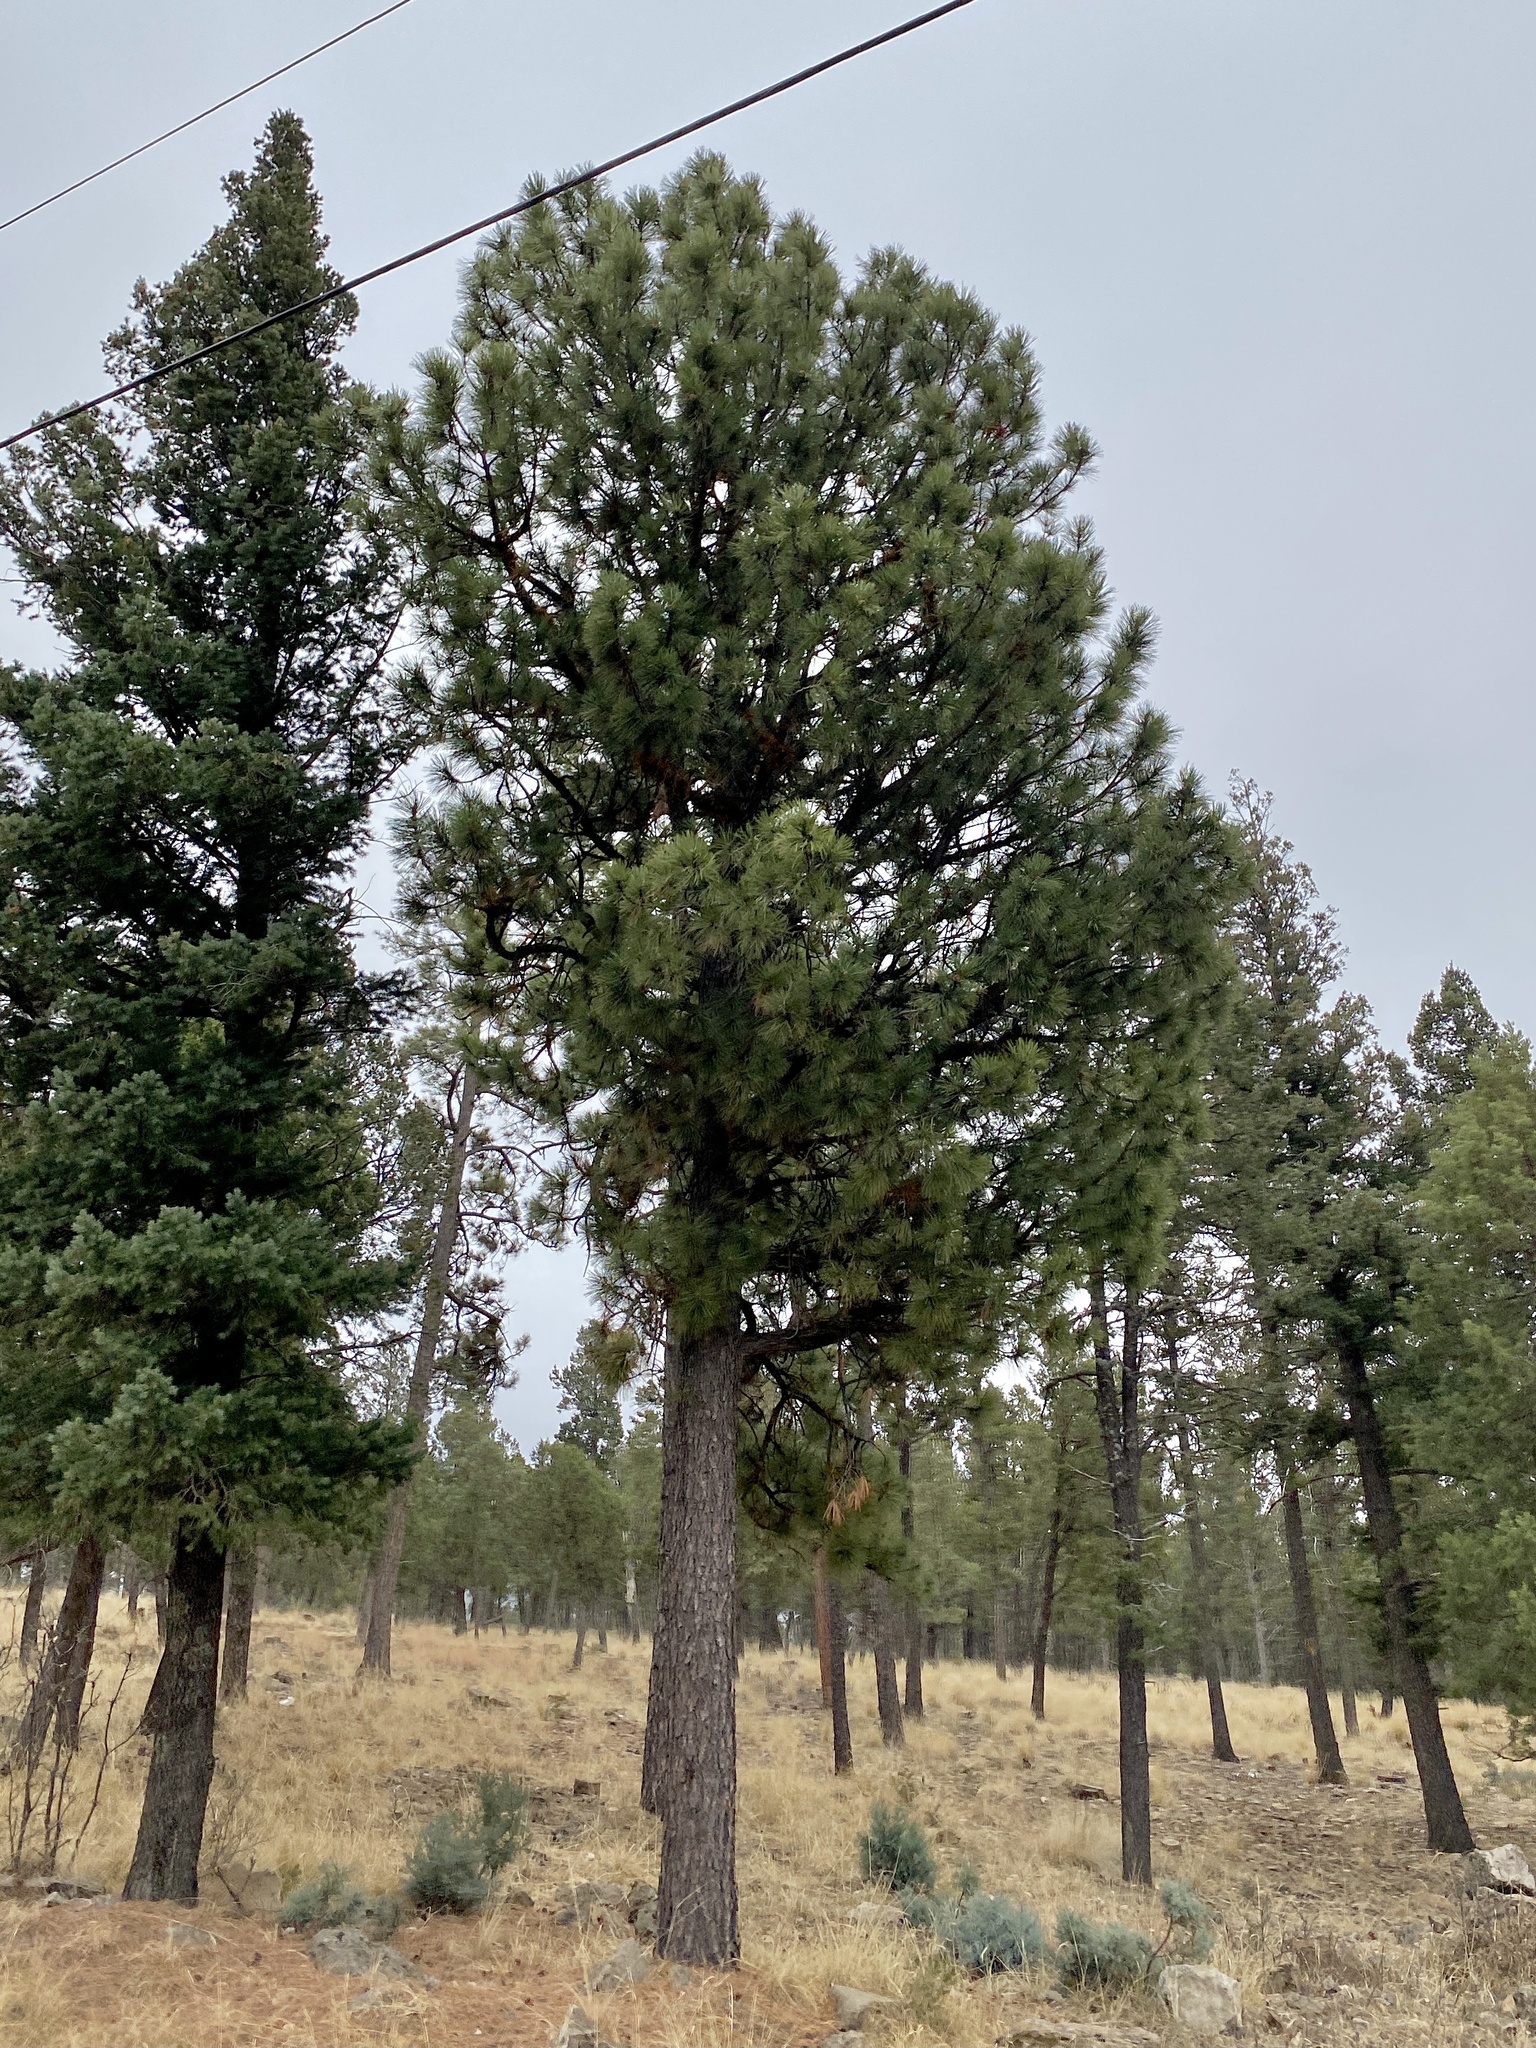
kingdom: Plantae
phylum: Tracheophyta
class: Pinopsida
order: Pinales
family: Pinaceae
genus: Pinus
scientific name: Pinus ponderosa
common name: Western yellow-pine
